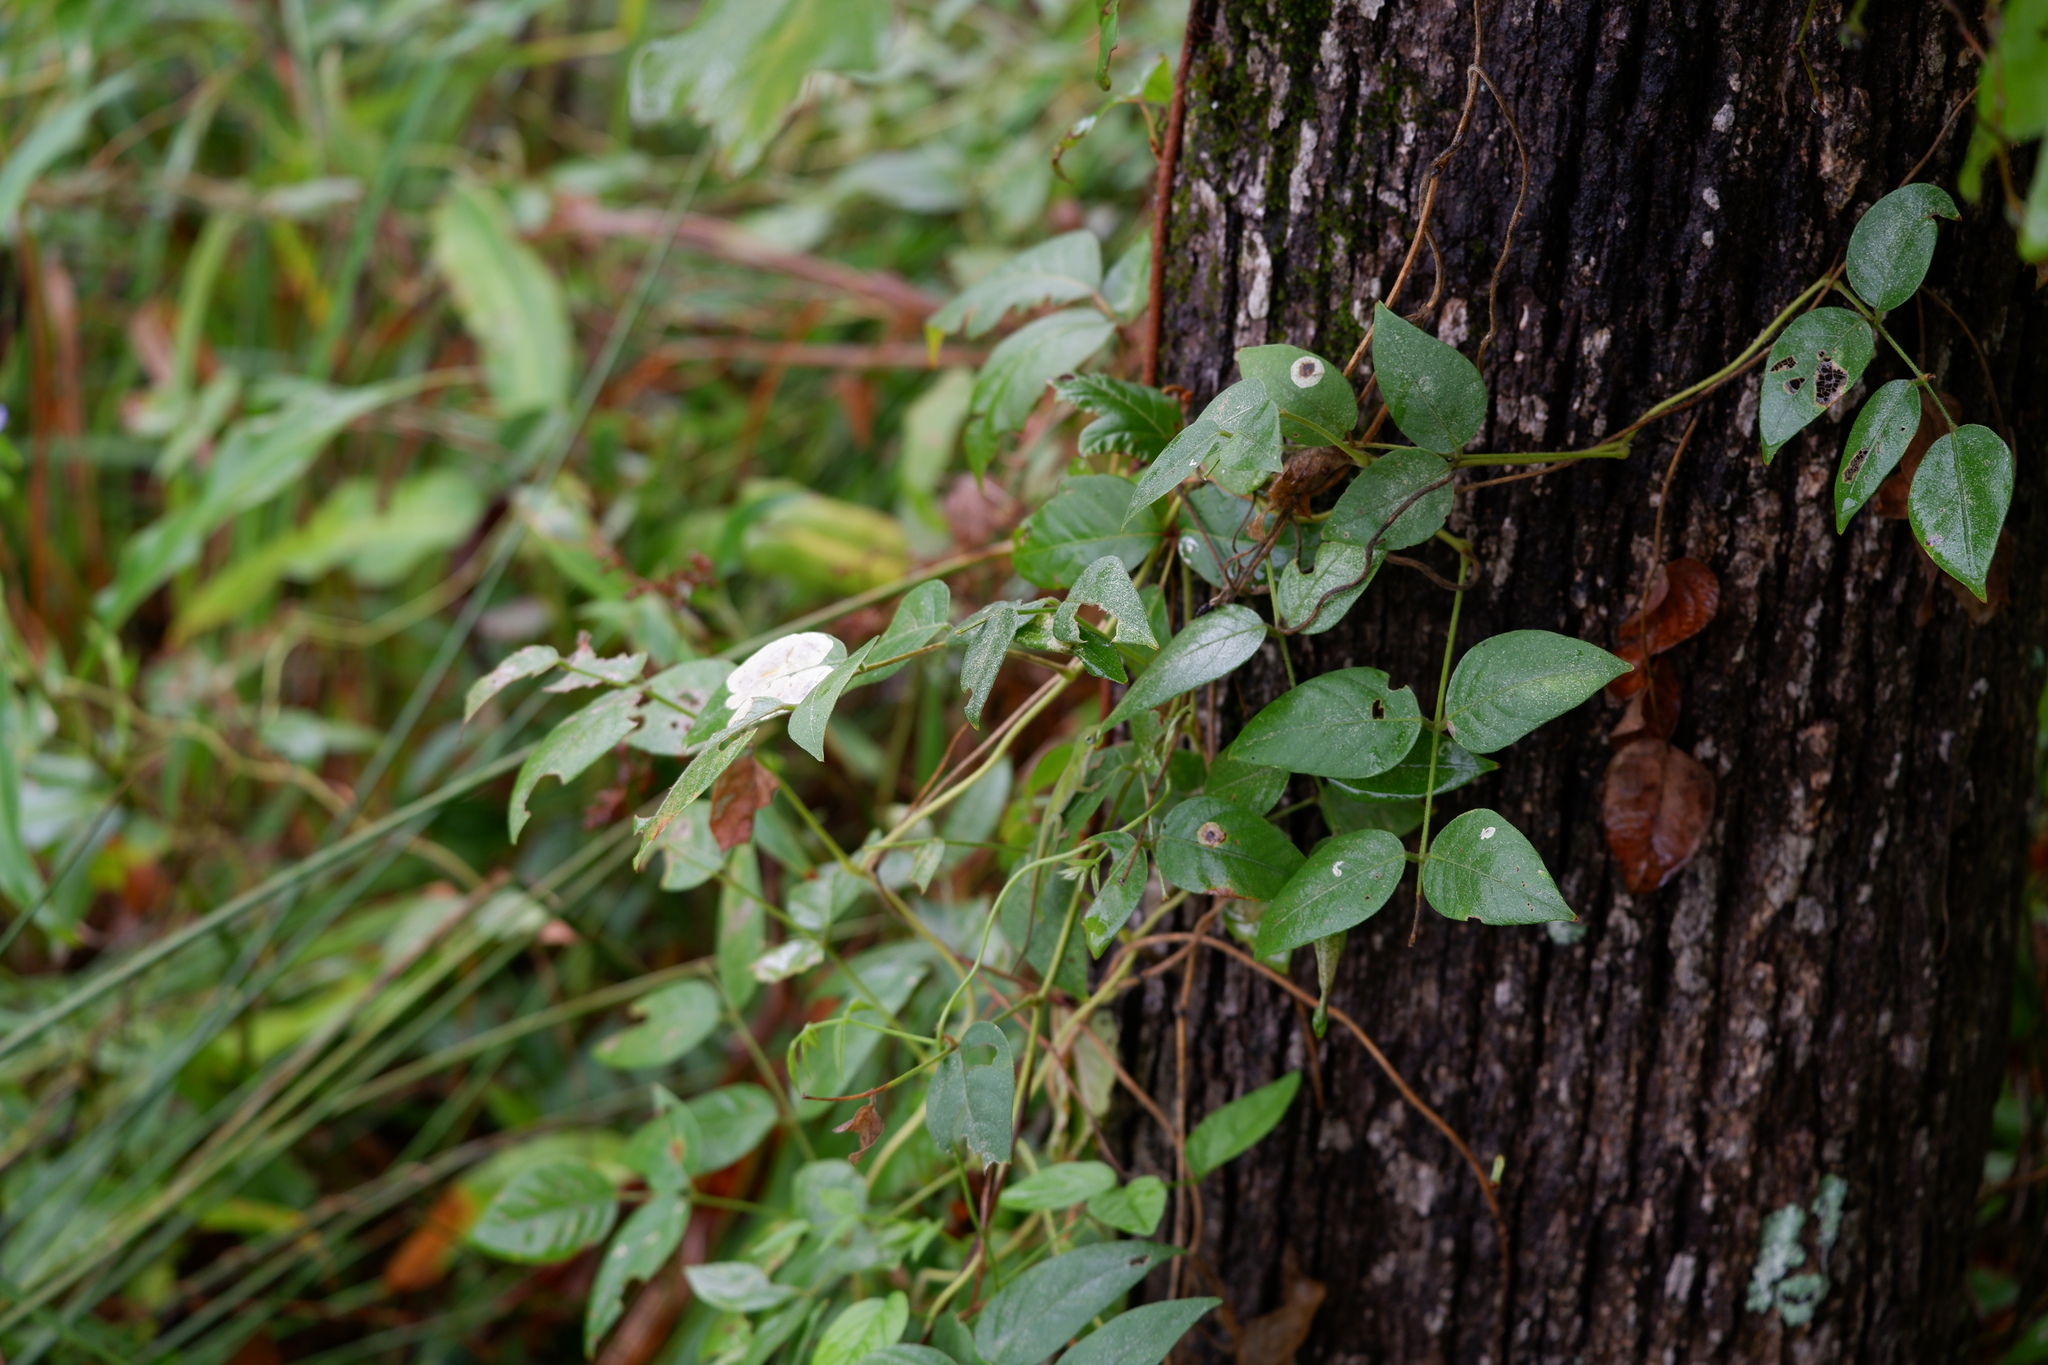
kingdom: Plantae
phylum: Tracheophyta
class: Magnoliopsida
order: Fabales
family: Fabaceae
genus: Apios
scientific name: Apios americana
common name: American potato-bean
